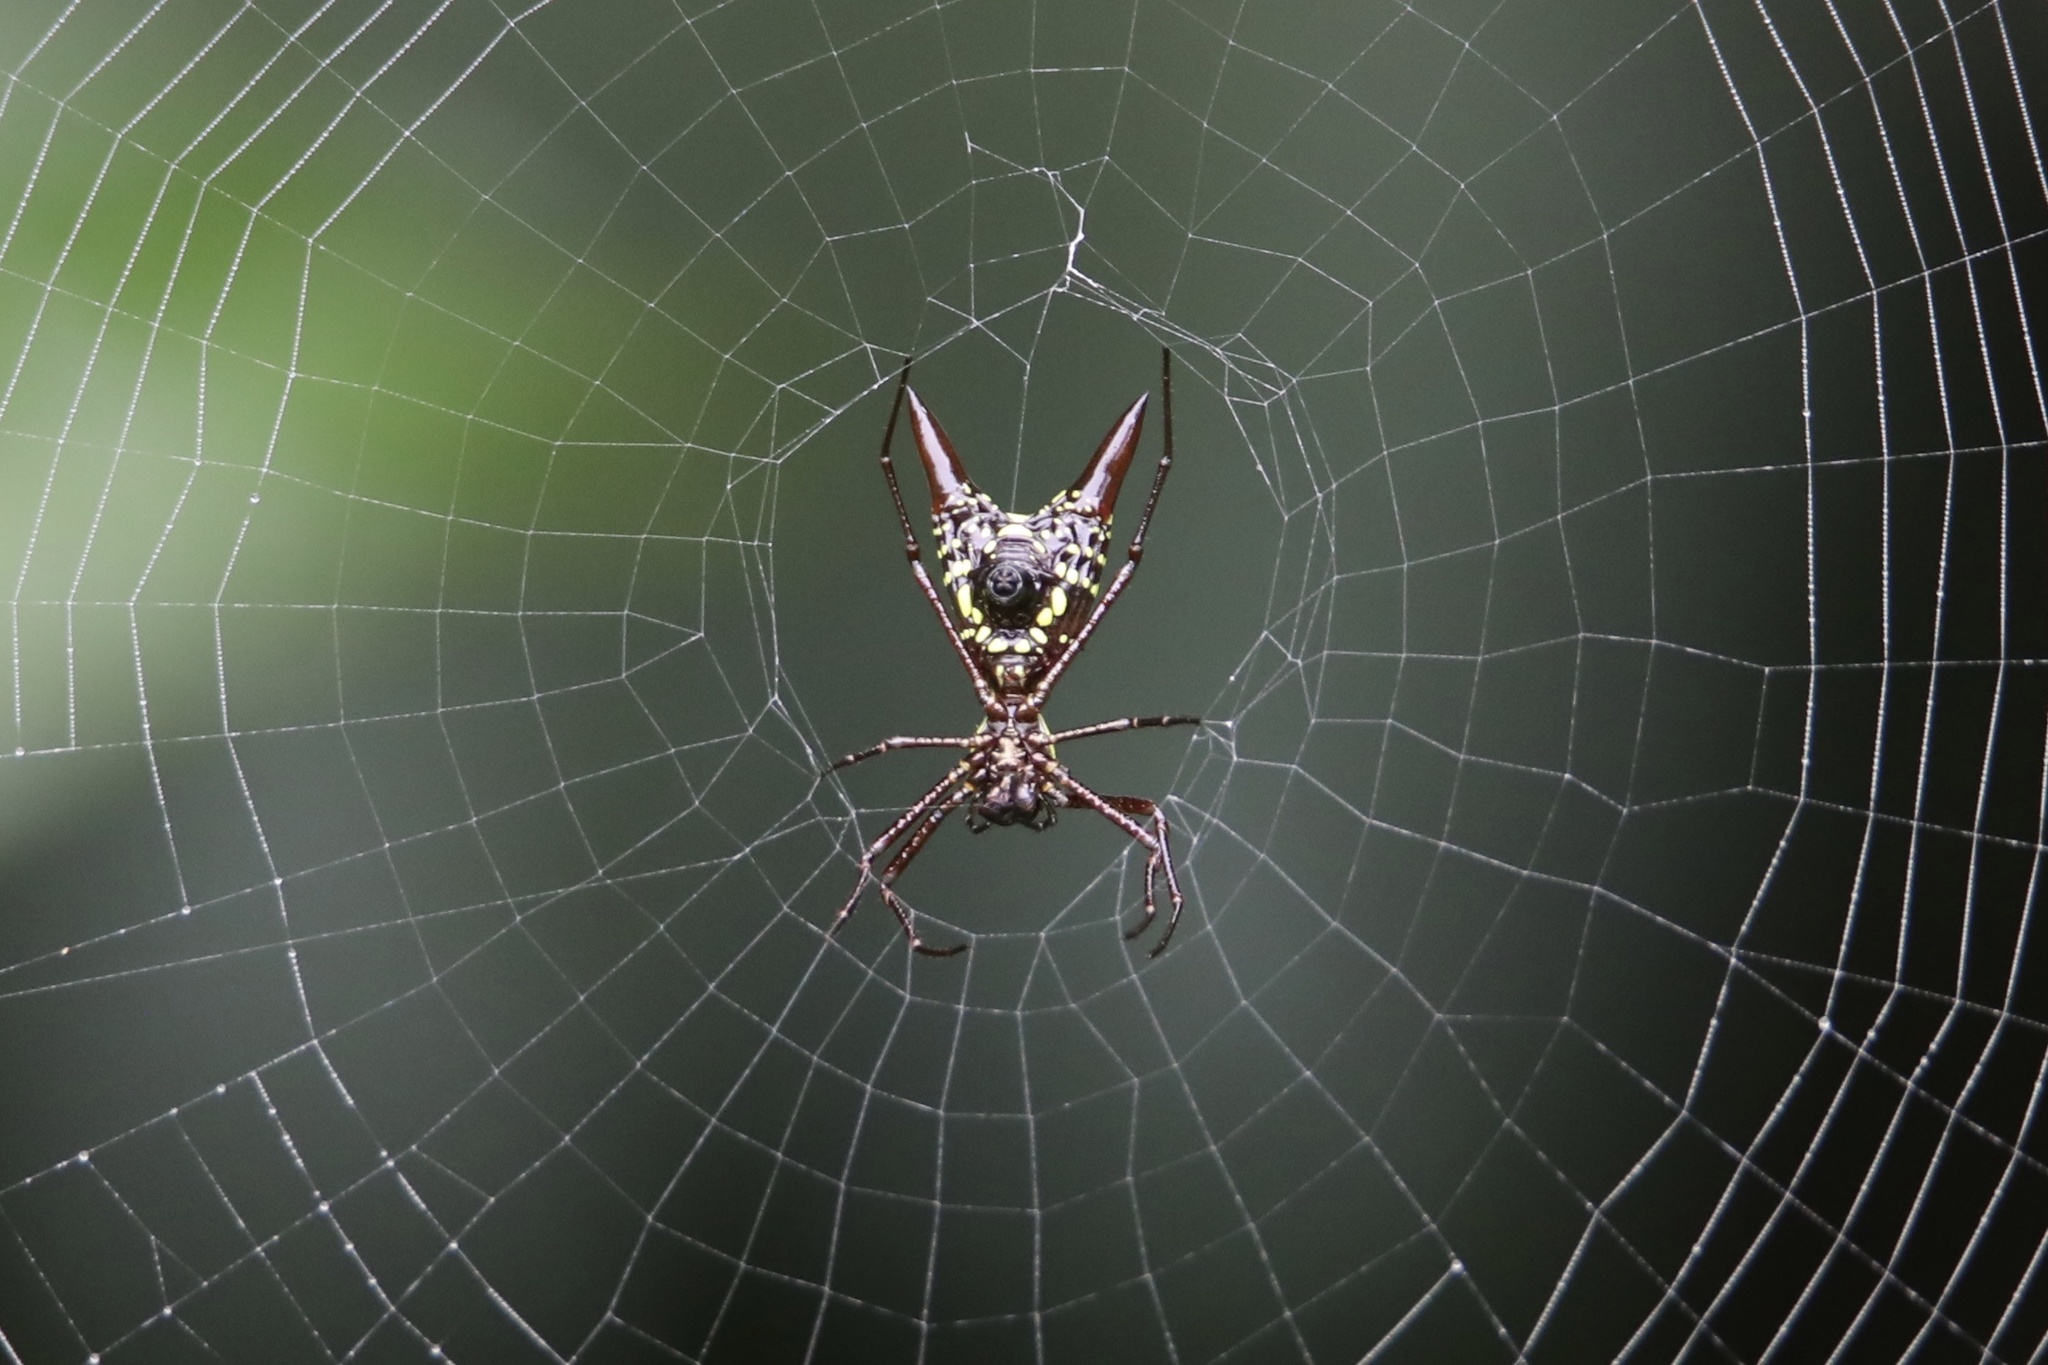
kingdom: Animalia
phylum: Arthropoda
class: Arachnida
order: Araneae
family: Araneidae
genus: Micrathena
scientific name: Micrathena sexspinosa
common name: Orb weavers
